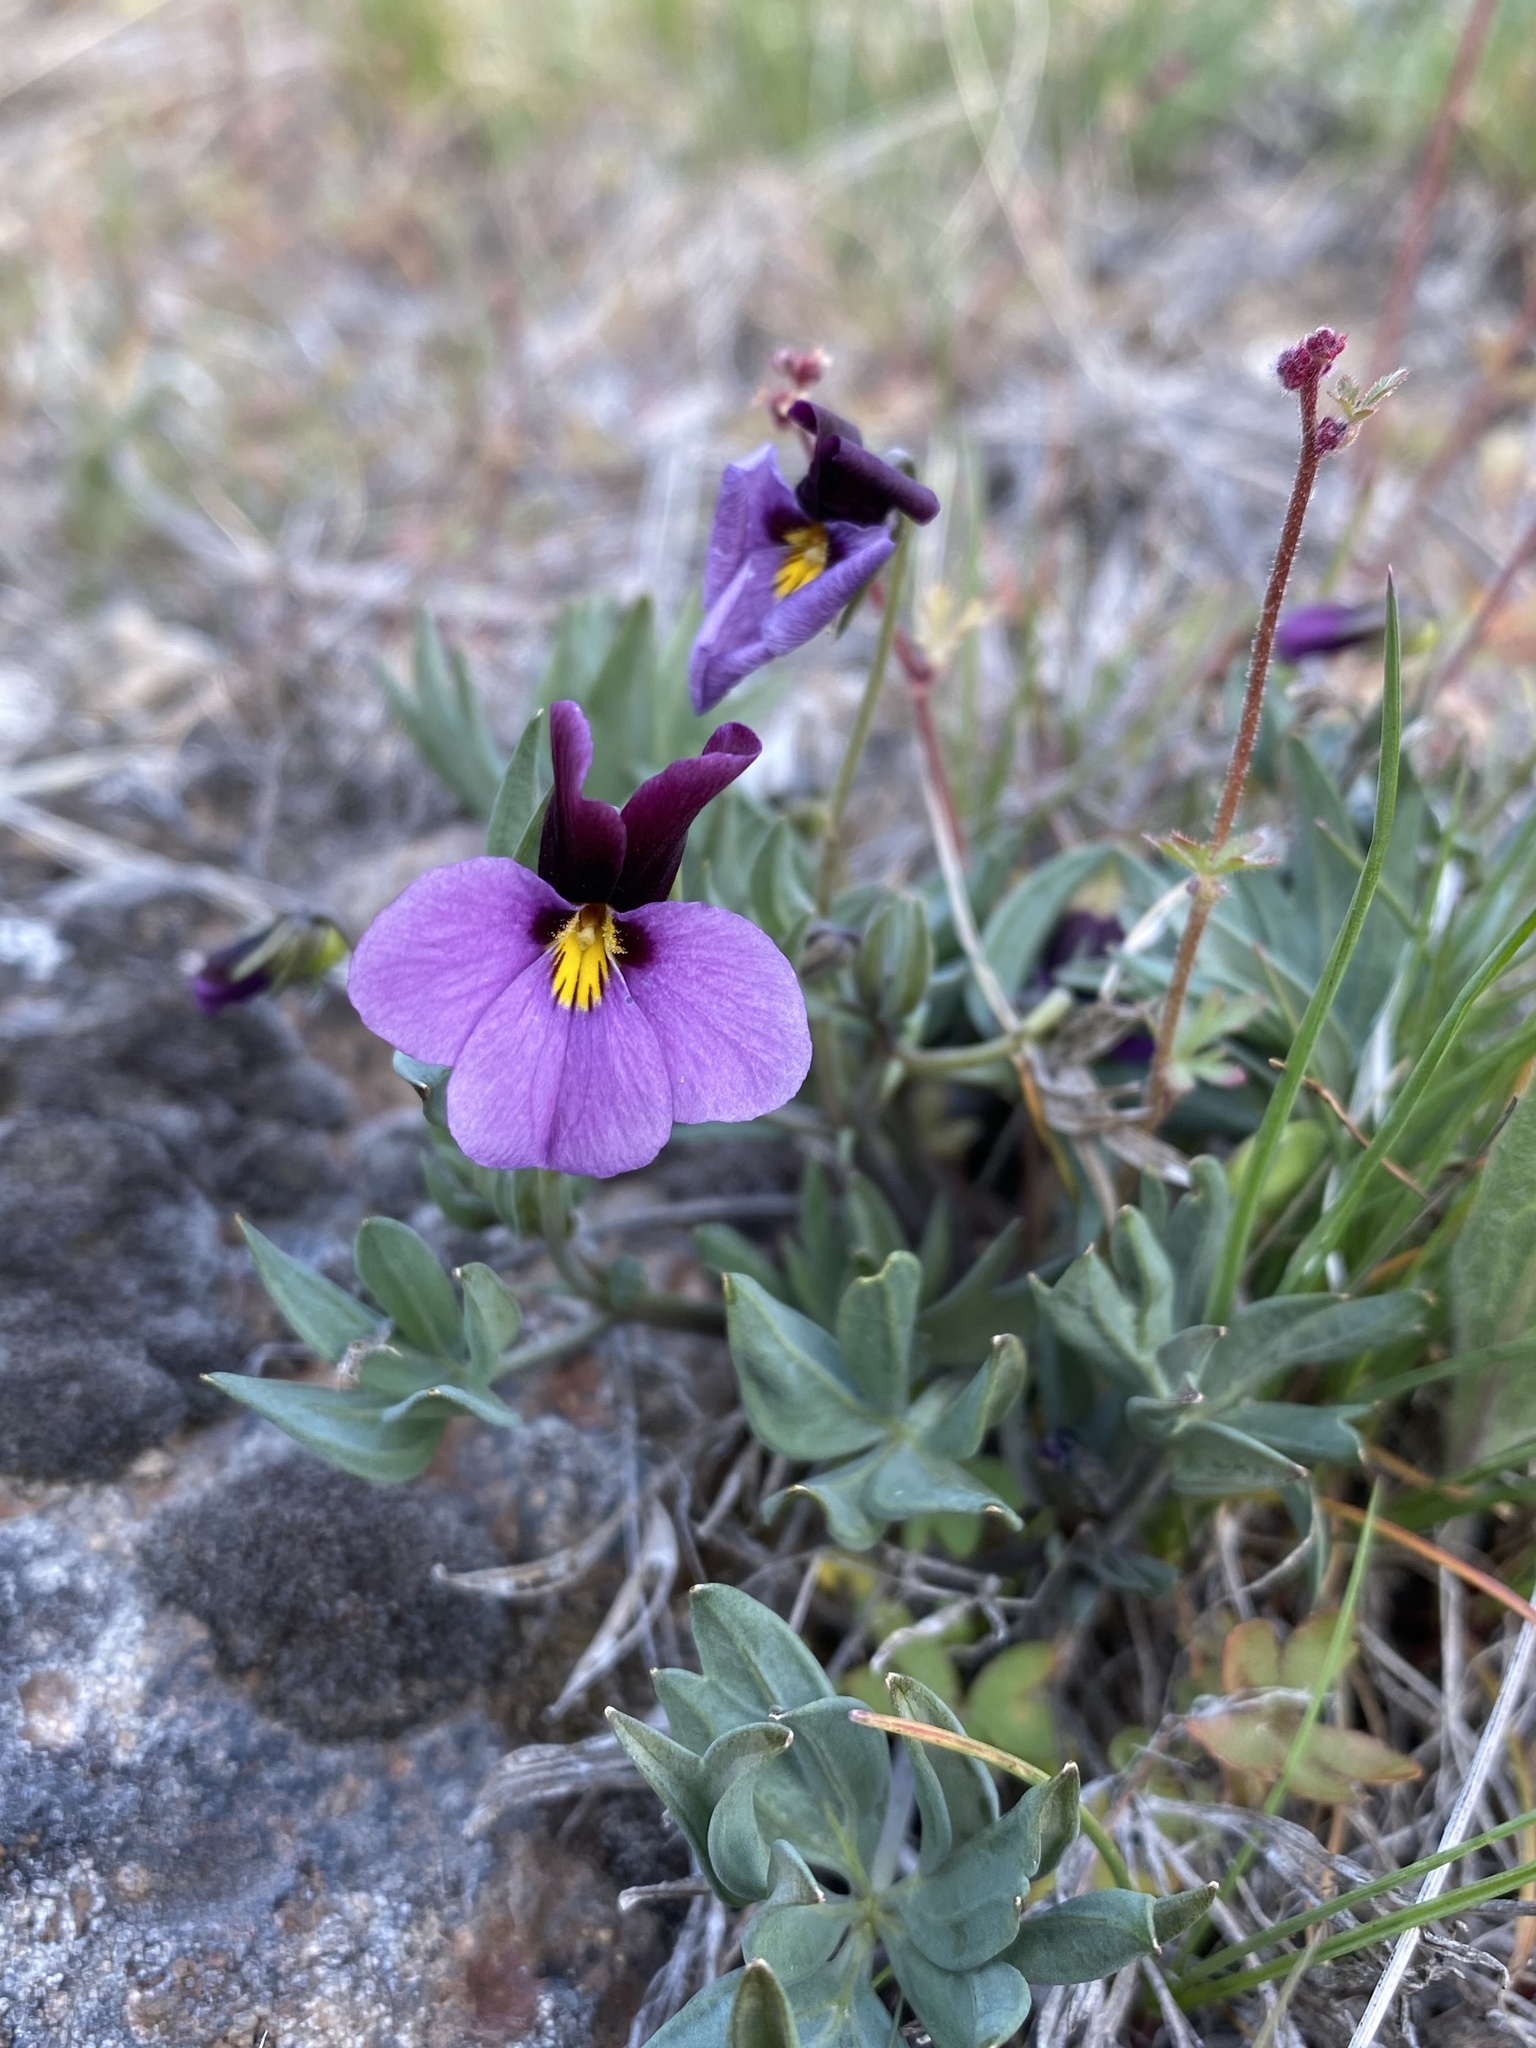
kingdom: Plantae
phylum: Tracheophyta
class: Magnoliopsida
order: Malpighiales
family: Violaceae
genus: Viola
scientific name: Viola trinervata
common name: Sagebrush violet
